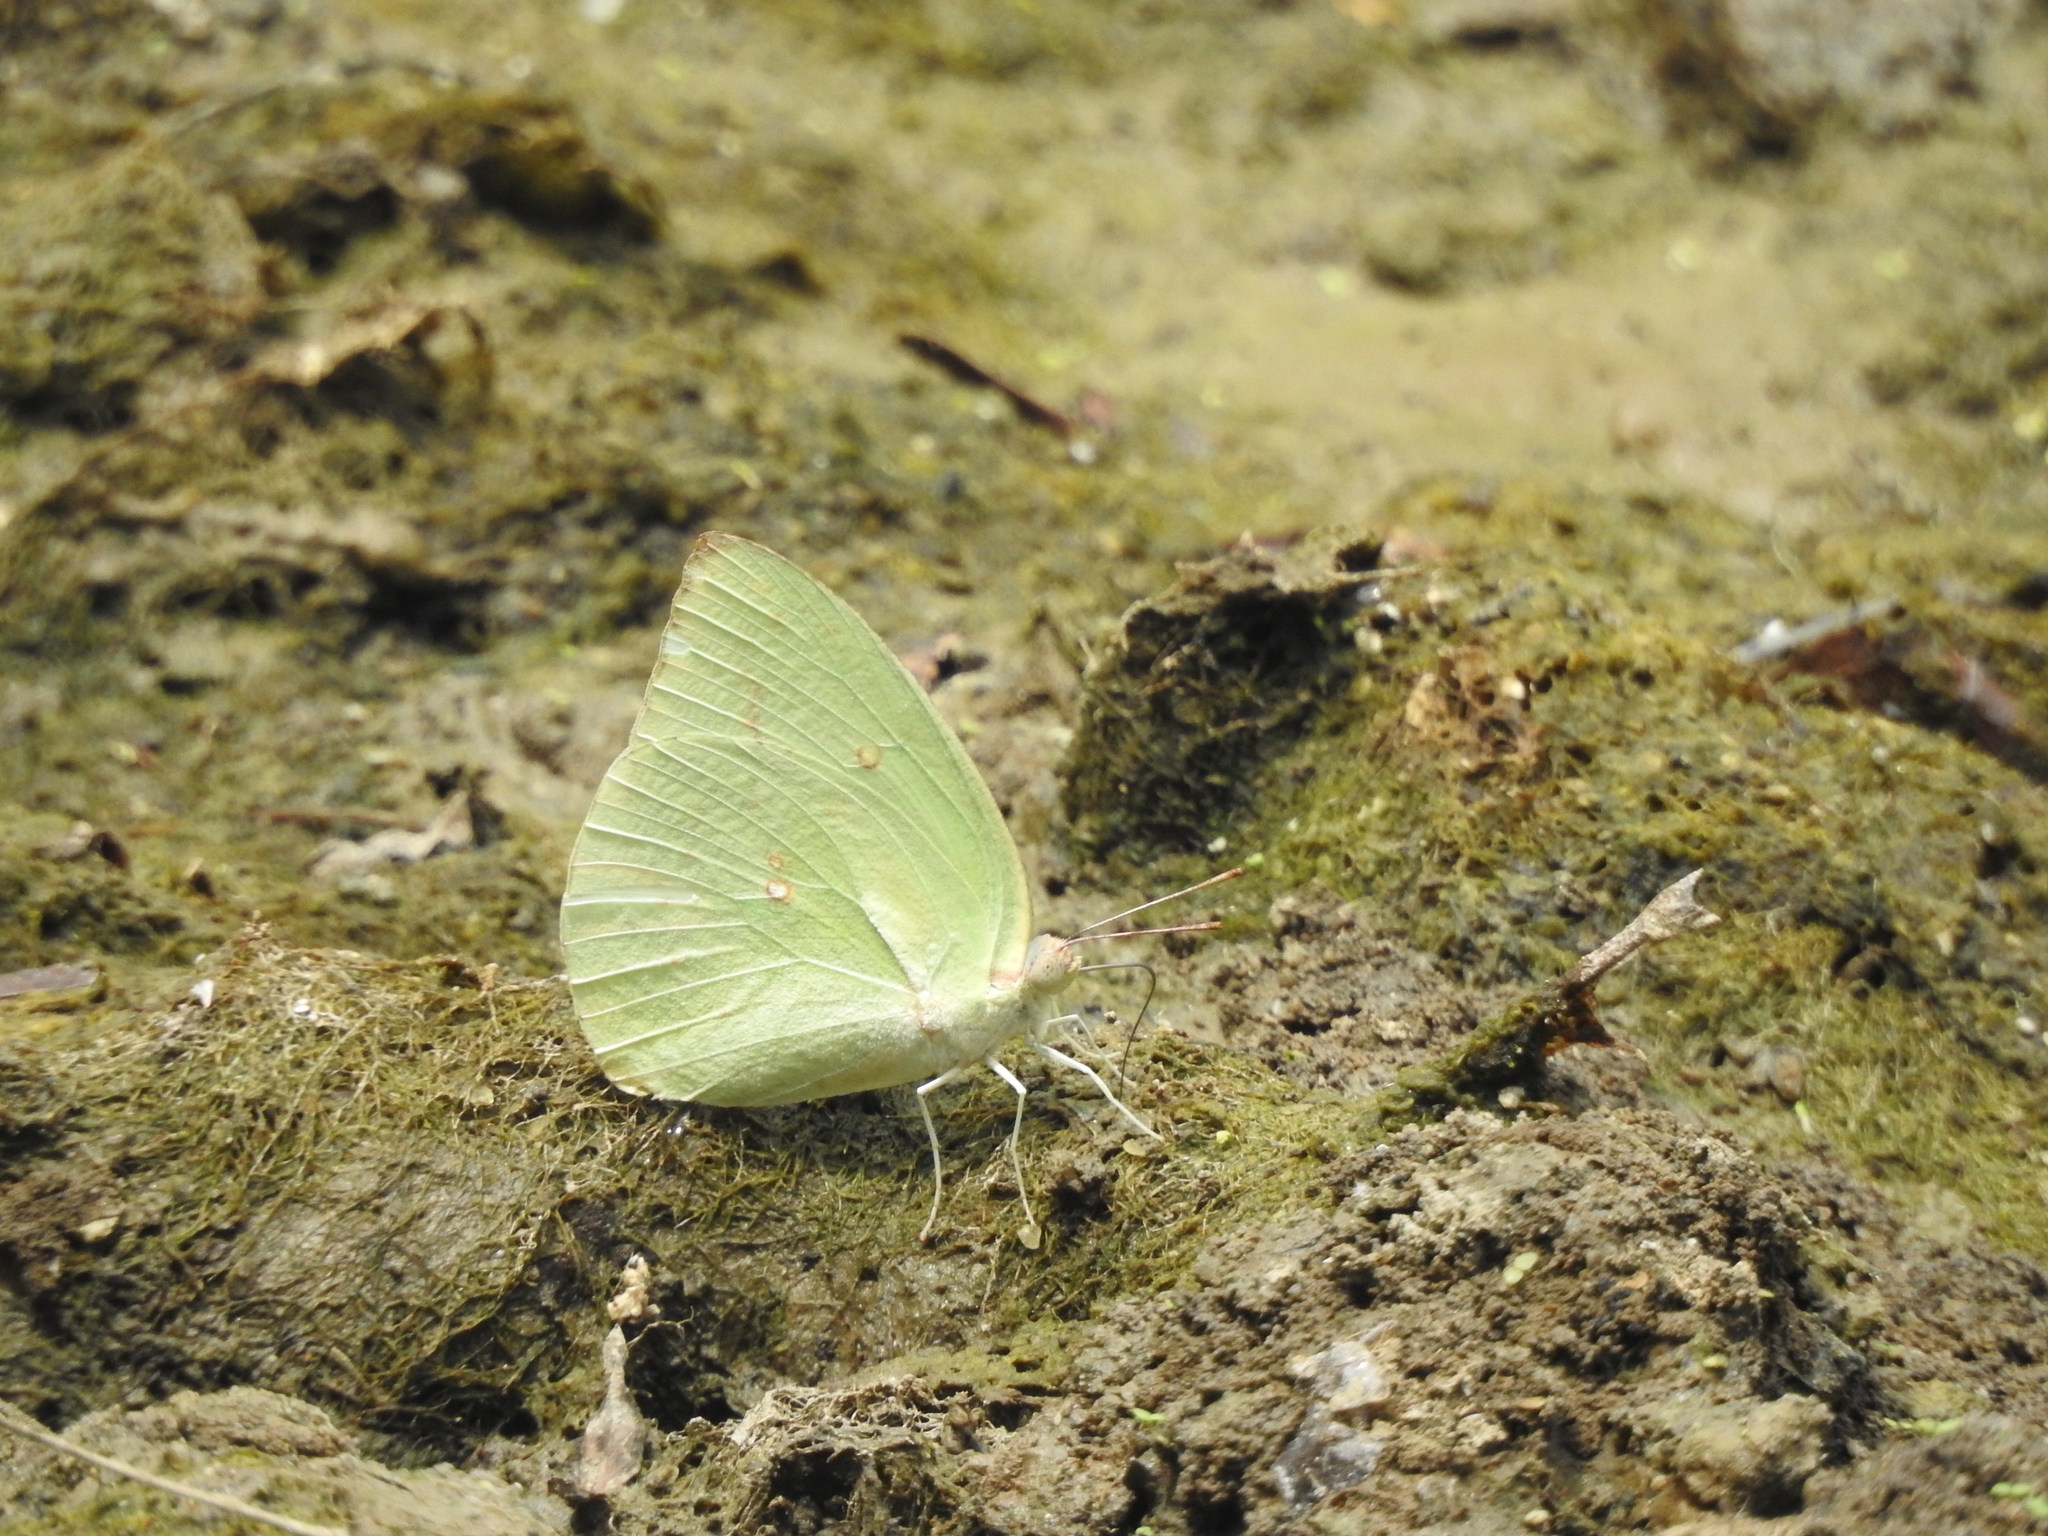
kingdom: Animalia
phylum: Arthropoda
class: Insecta
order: Lepidoptera
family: Pieridae
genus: Catopsilia
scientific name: Catopsilia pomona
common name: Common emigrant
